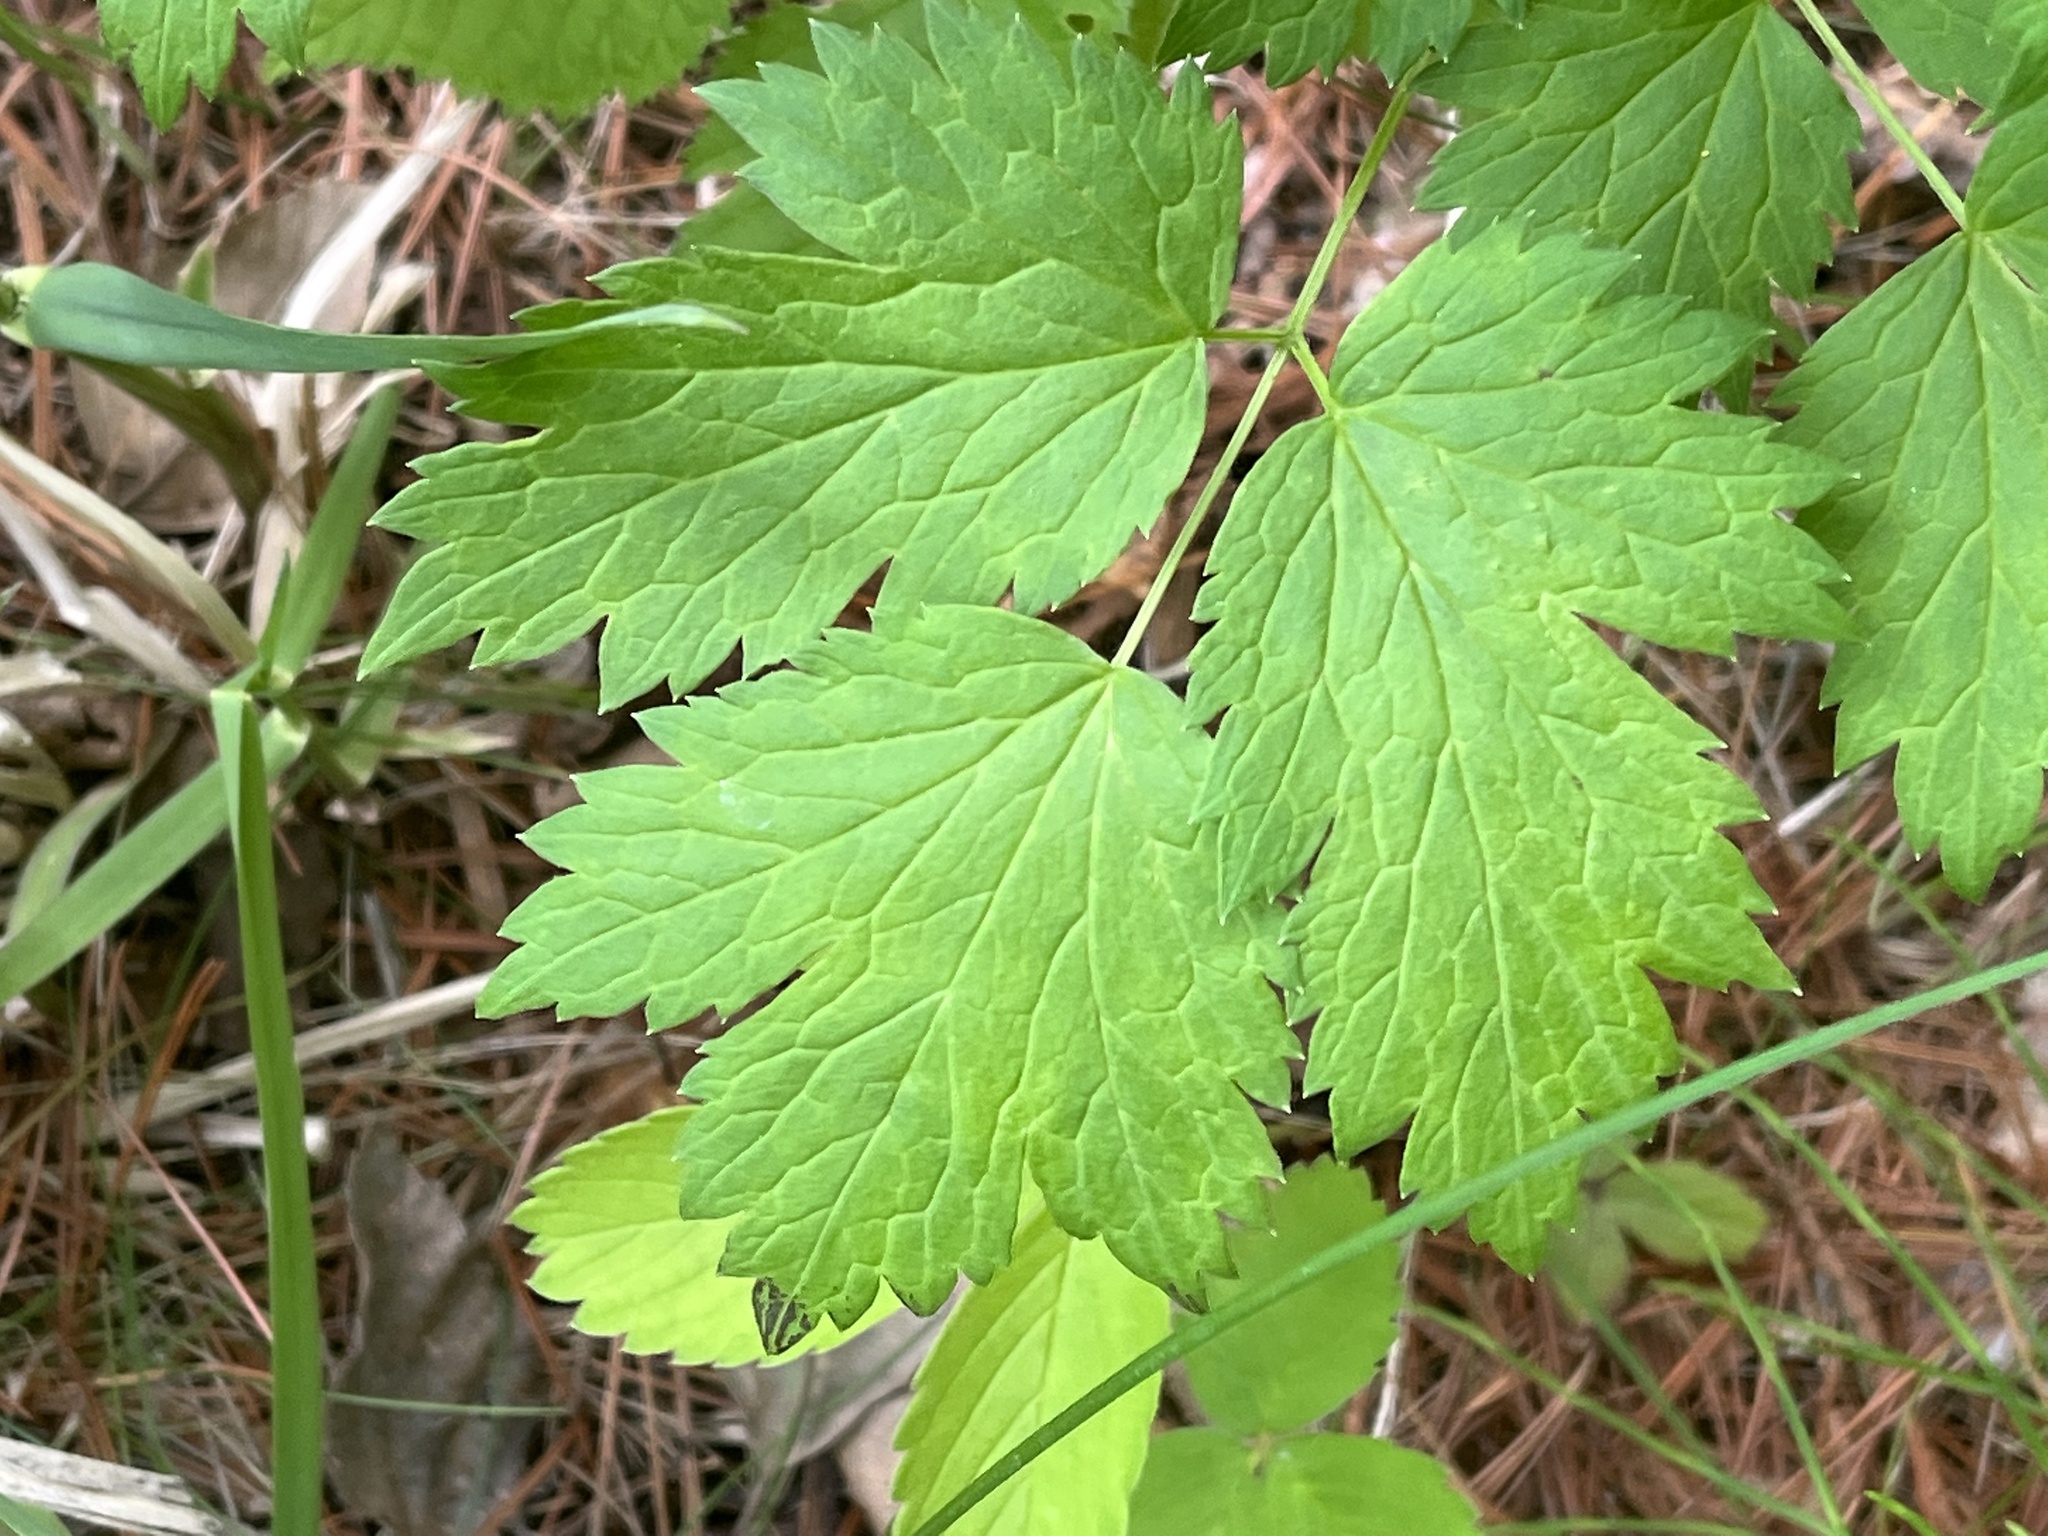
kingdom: Plantae
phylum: Tracheophyta
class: Magnoliopsida
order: Ranunculales
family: Ranunculaceae
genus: Actaea
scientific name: Actaea rubra
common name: Red baneberry
